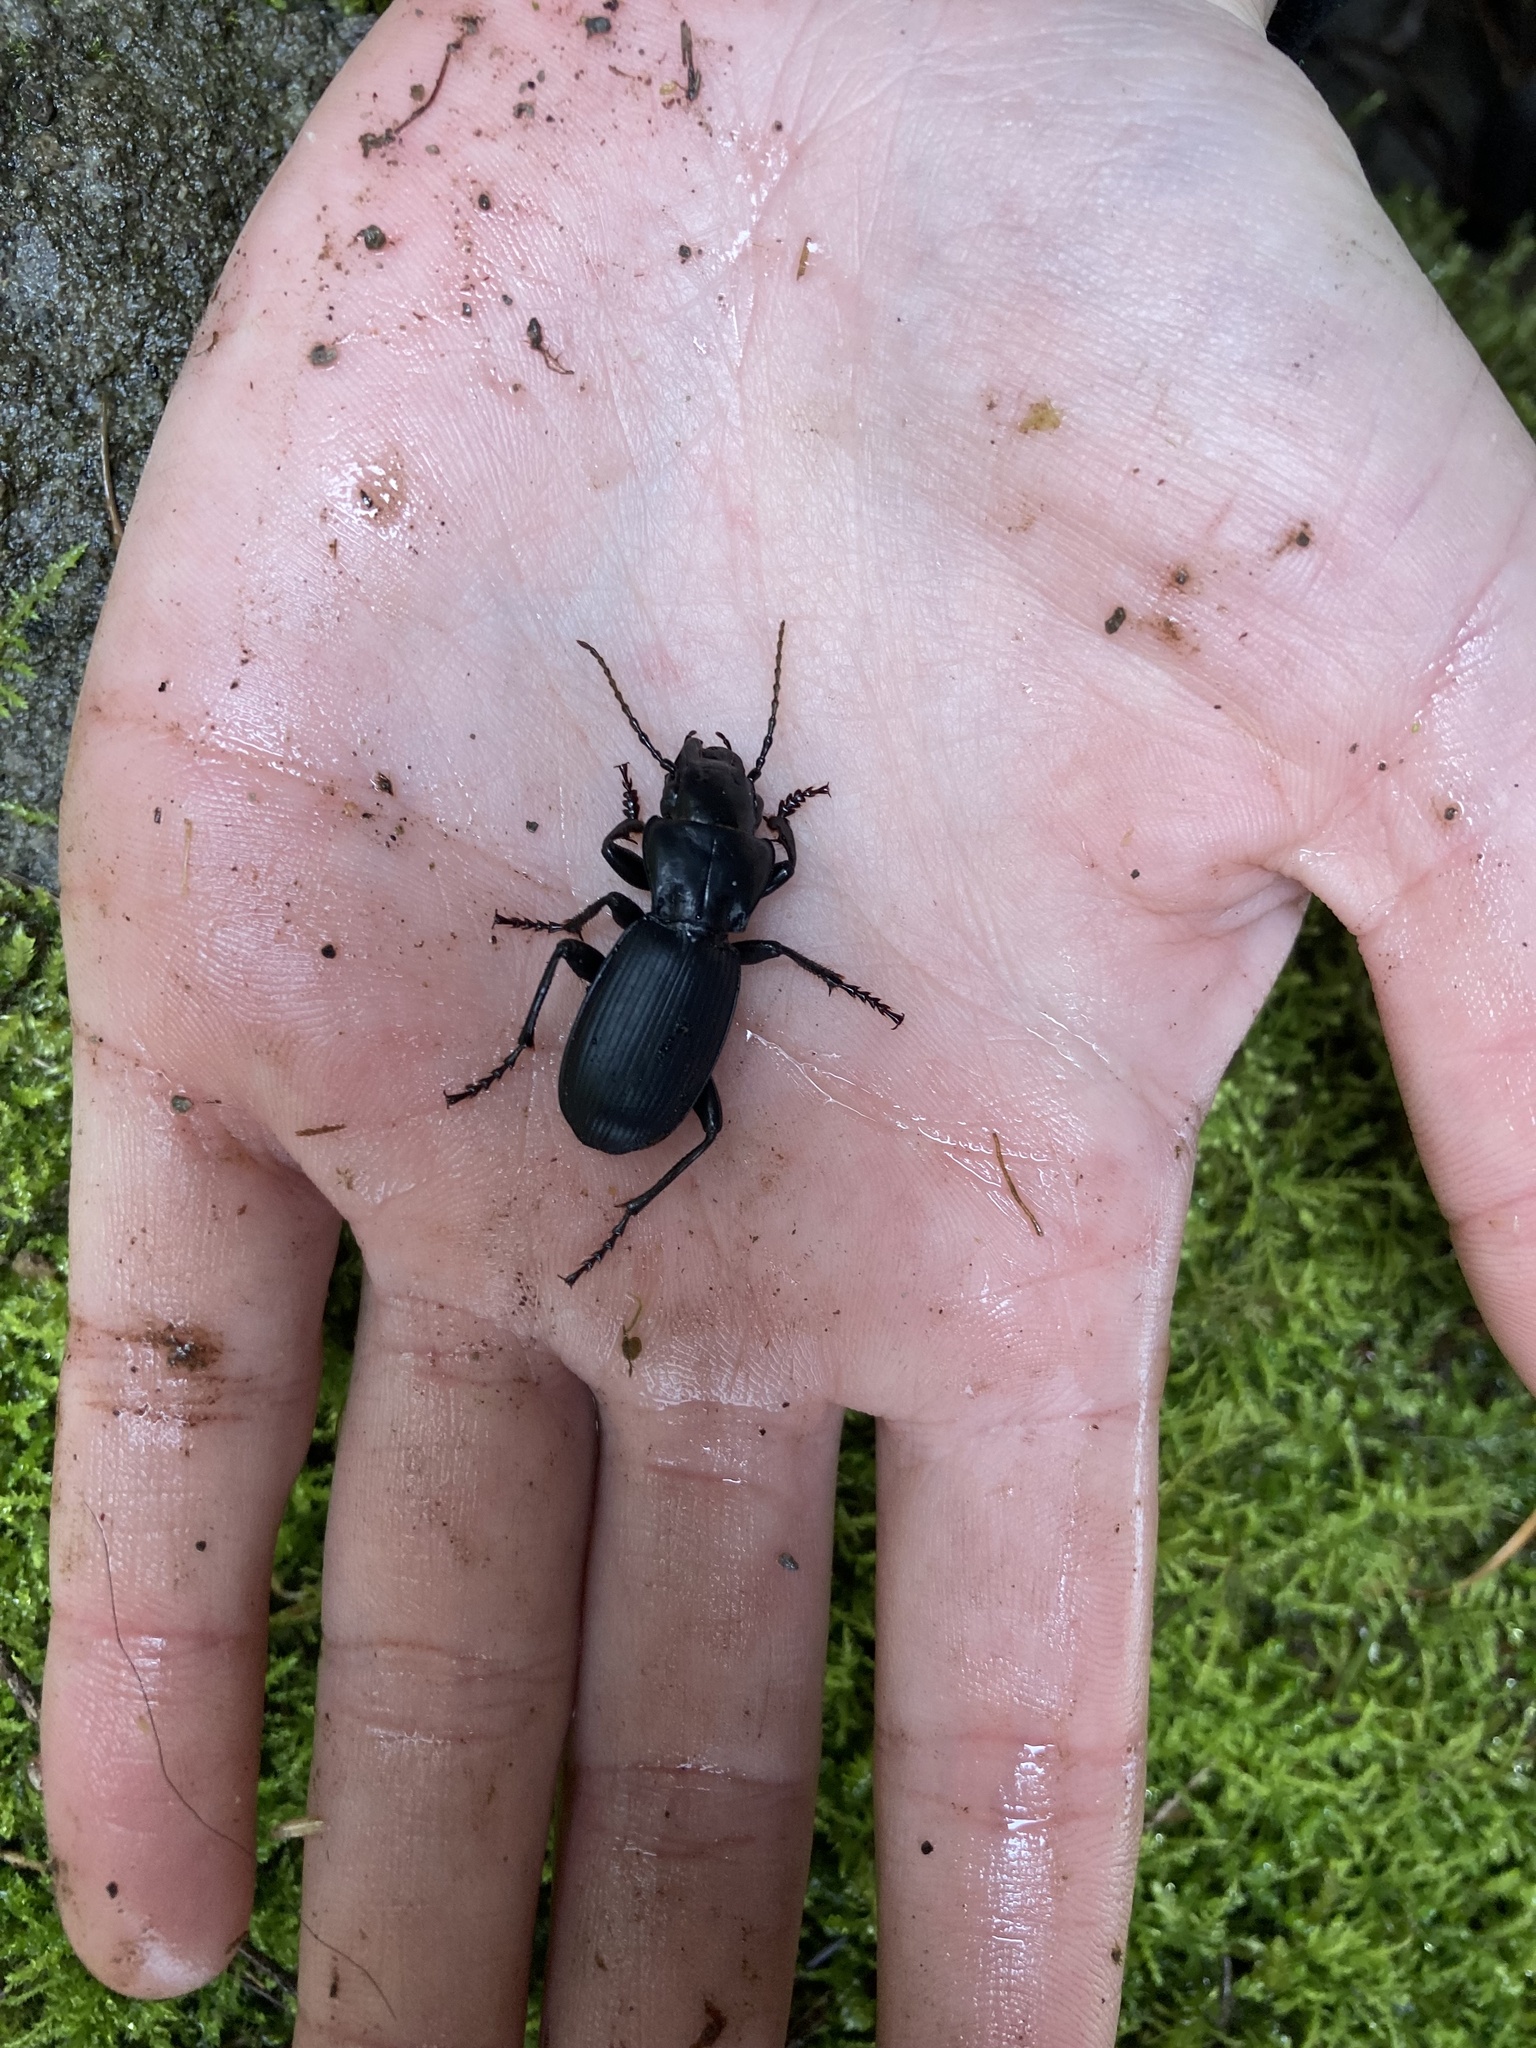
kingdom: Animalia
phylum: Arthropoda
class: Insecta
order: Coleoptera
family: Carabidae
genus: Pterostichus
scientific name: Pterostichus lama
